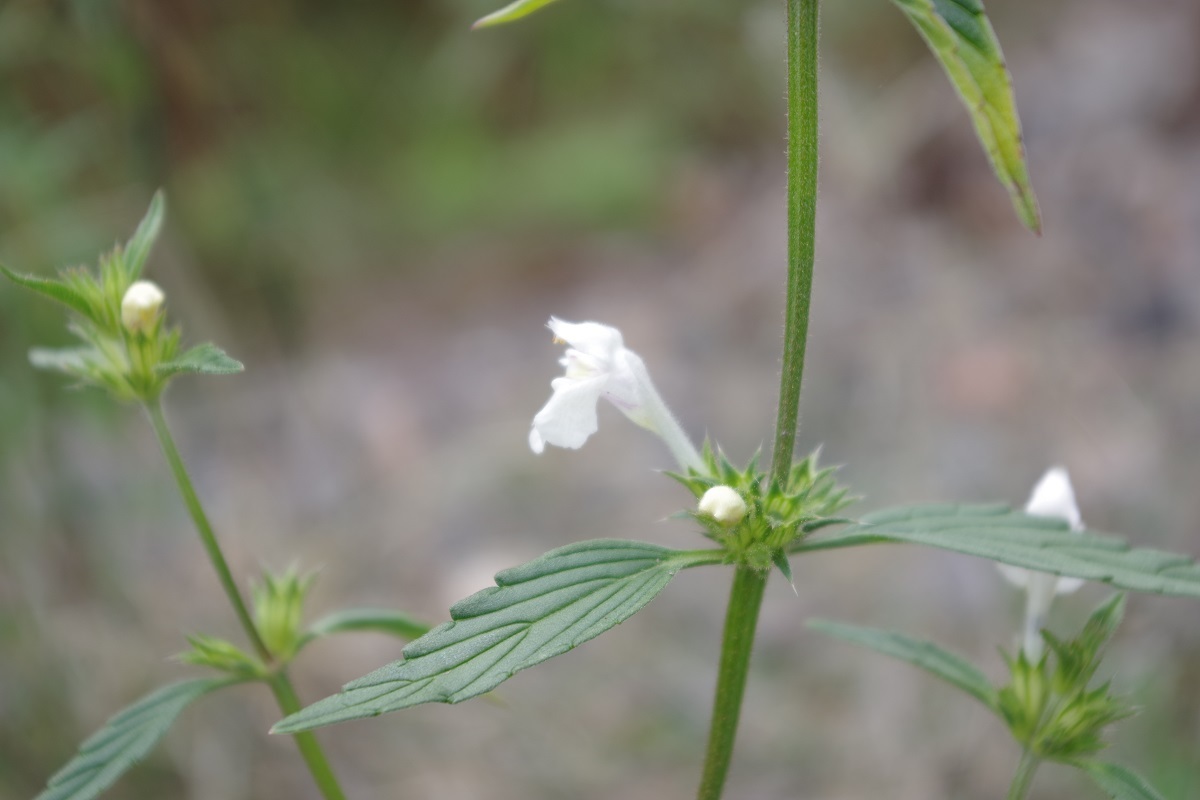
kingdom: Plantae
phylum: Tracheophyta
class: Magnoliopsida
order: Lamiales
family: Lamiaceae
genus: Galeopsis
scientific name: Galeopsis segetum
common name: Downy hemp-nettle
